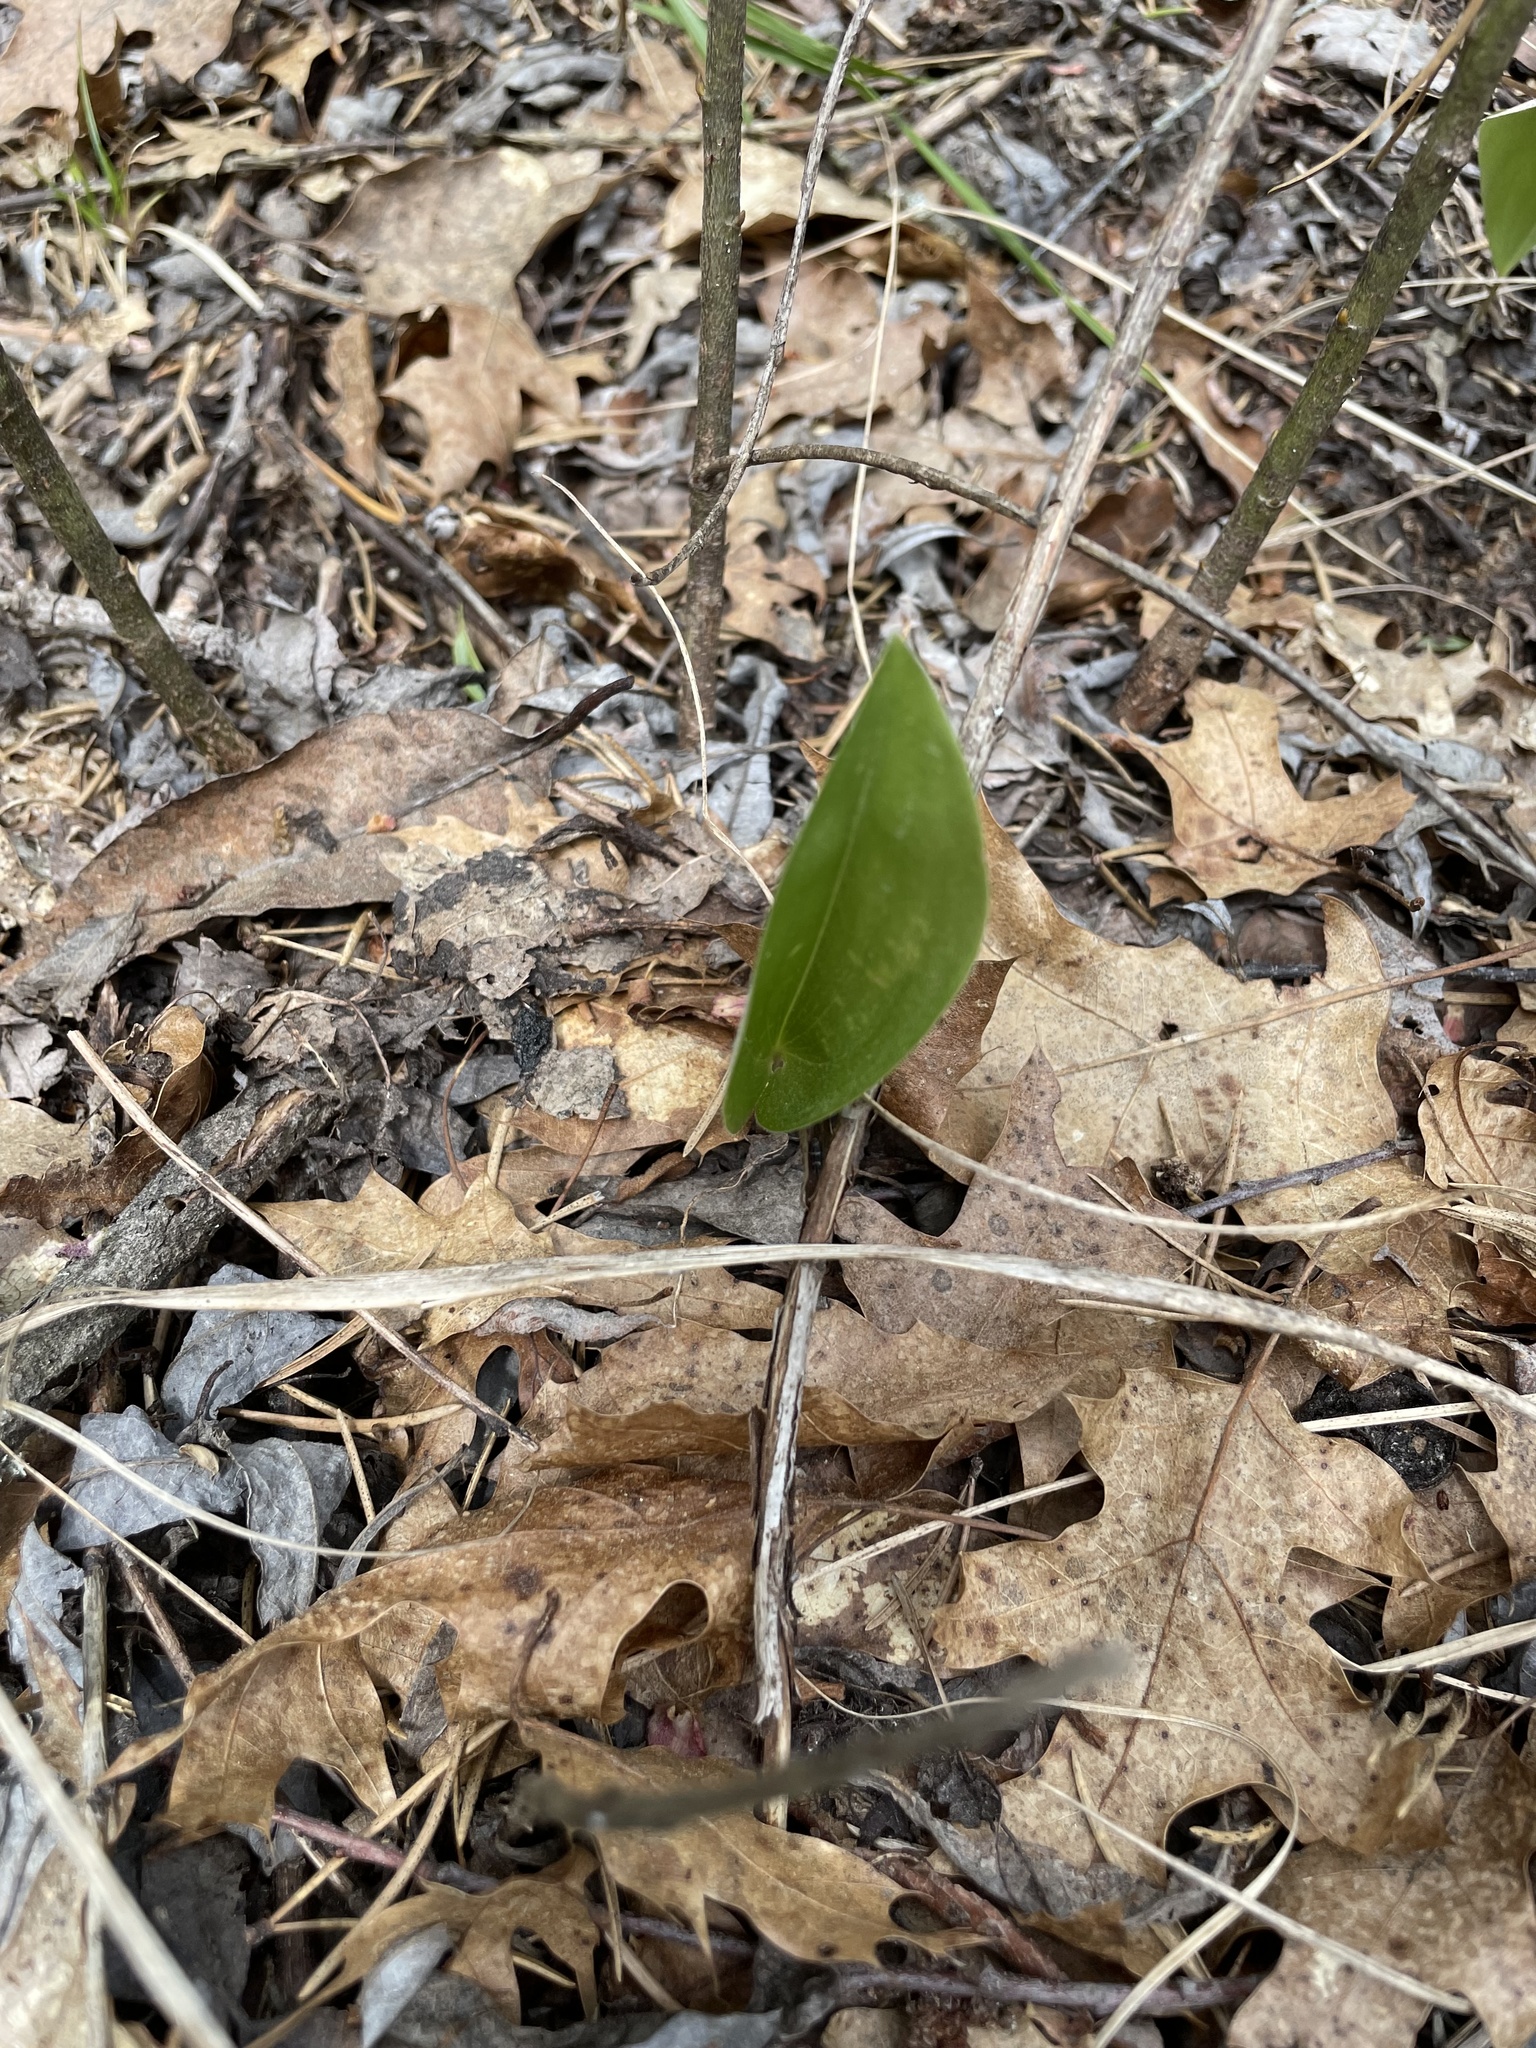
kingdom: Plantae
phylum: Tracheophyta
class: Liliopsida
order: Asparagales
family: Asparagaceae
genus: Maianthemum
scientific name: Maianthemum canadense
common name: False lily-of-the-valley
